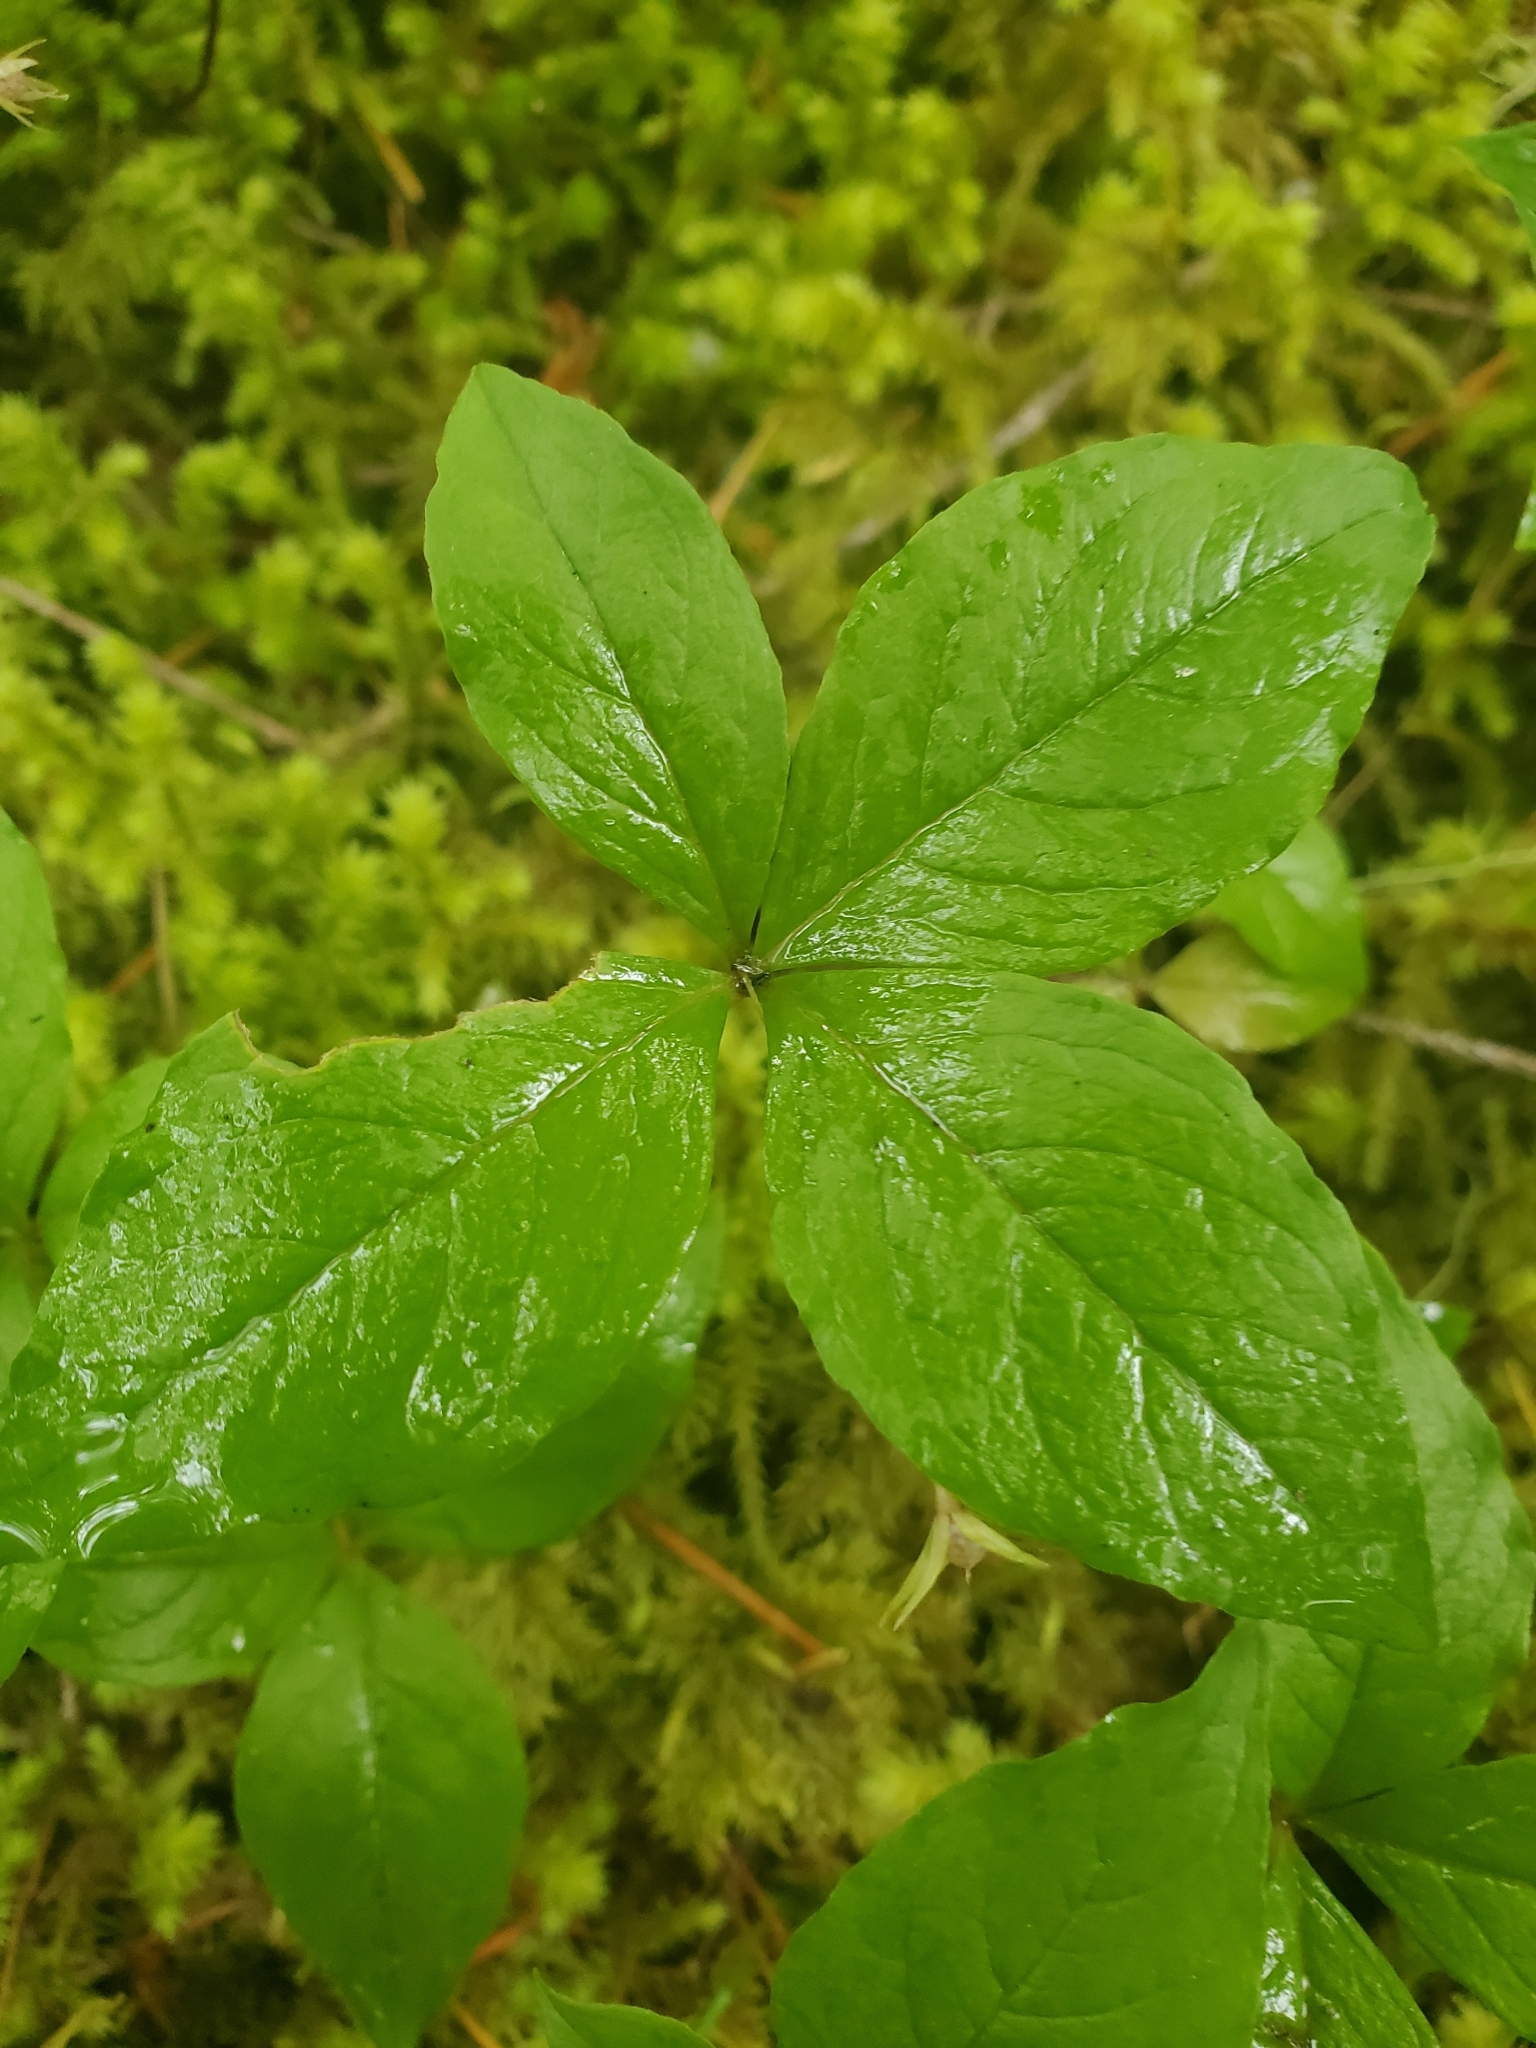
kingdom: Plantae
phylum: Tracheophyta
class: Magnoliopsida
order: Ericales
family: Primulaceae
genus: Lysimachia
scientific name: Lysimachia latifolia
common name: Pacific starflower
